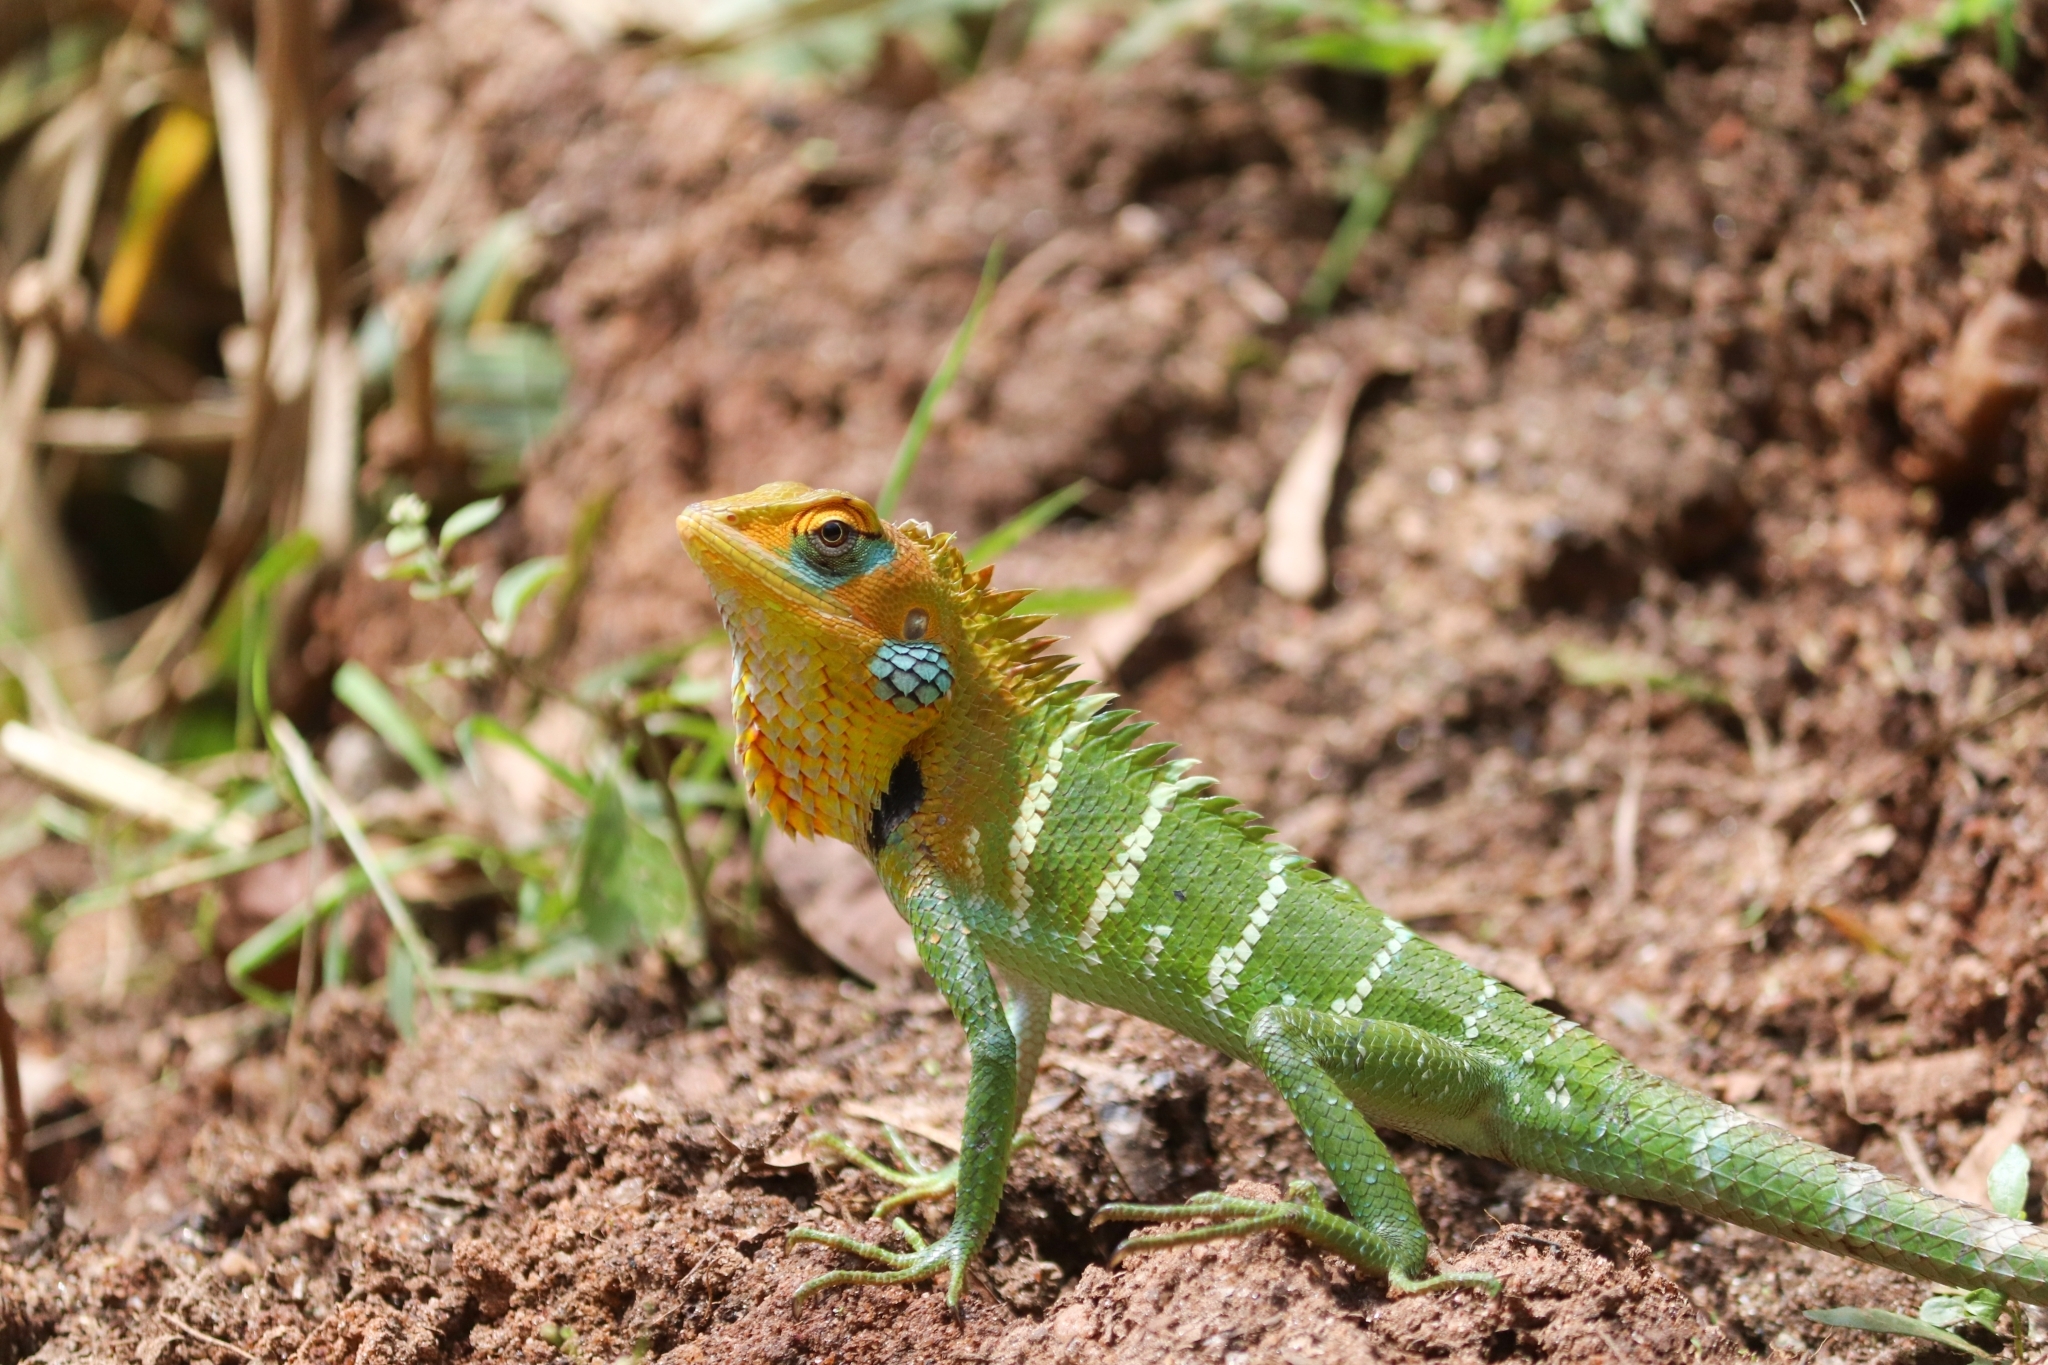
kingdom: Animalia
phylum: Chordata
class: Squamata
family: Agamidae
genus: Calotes
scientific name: Calotes calotes
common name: Common green forest lizard
